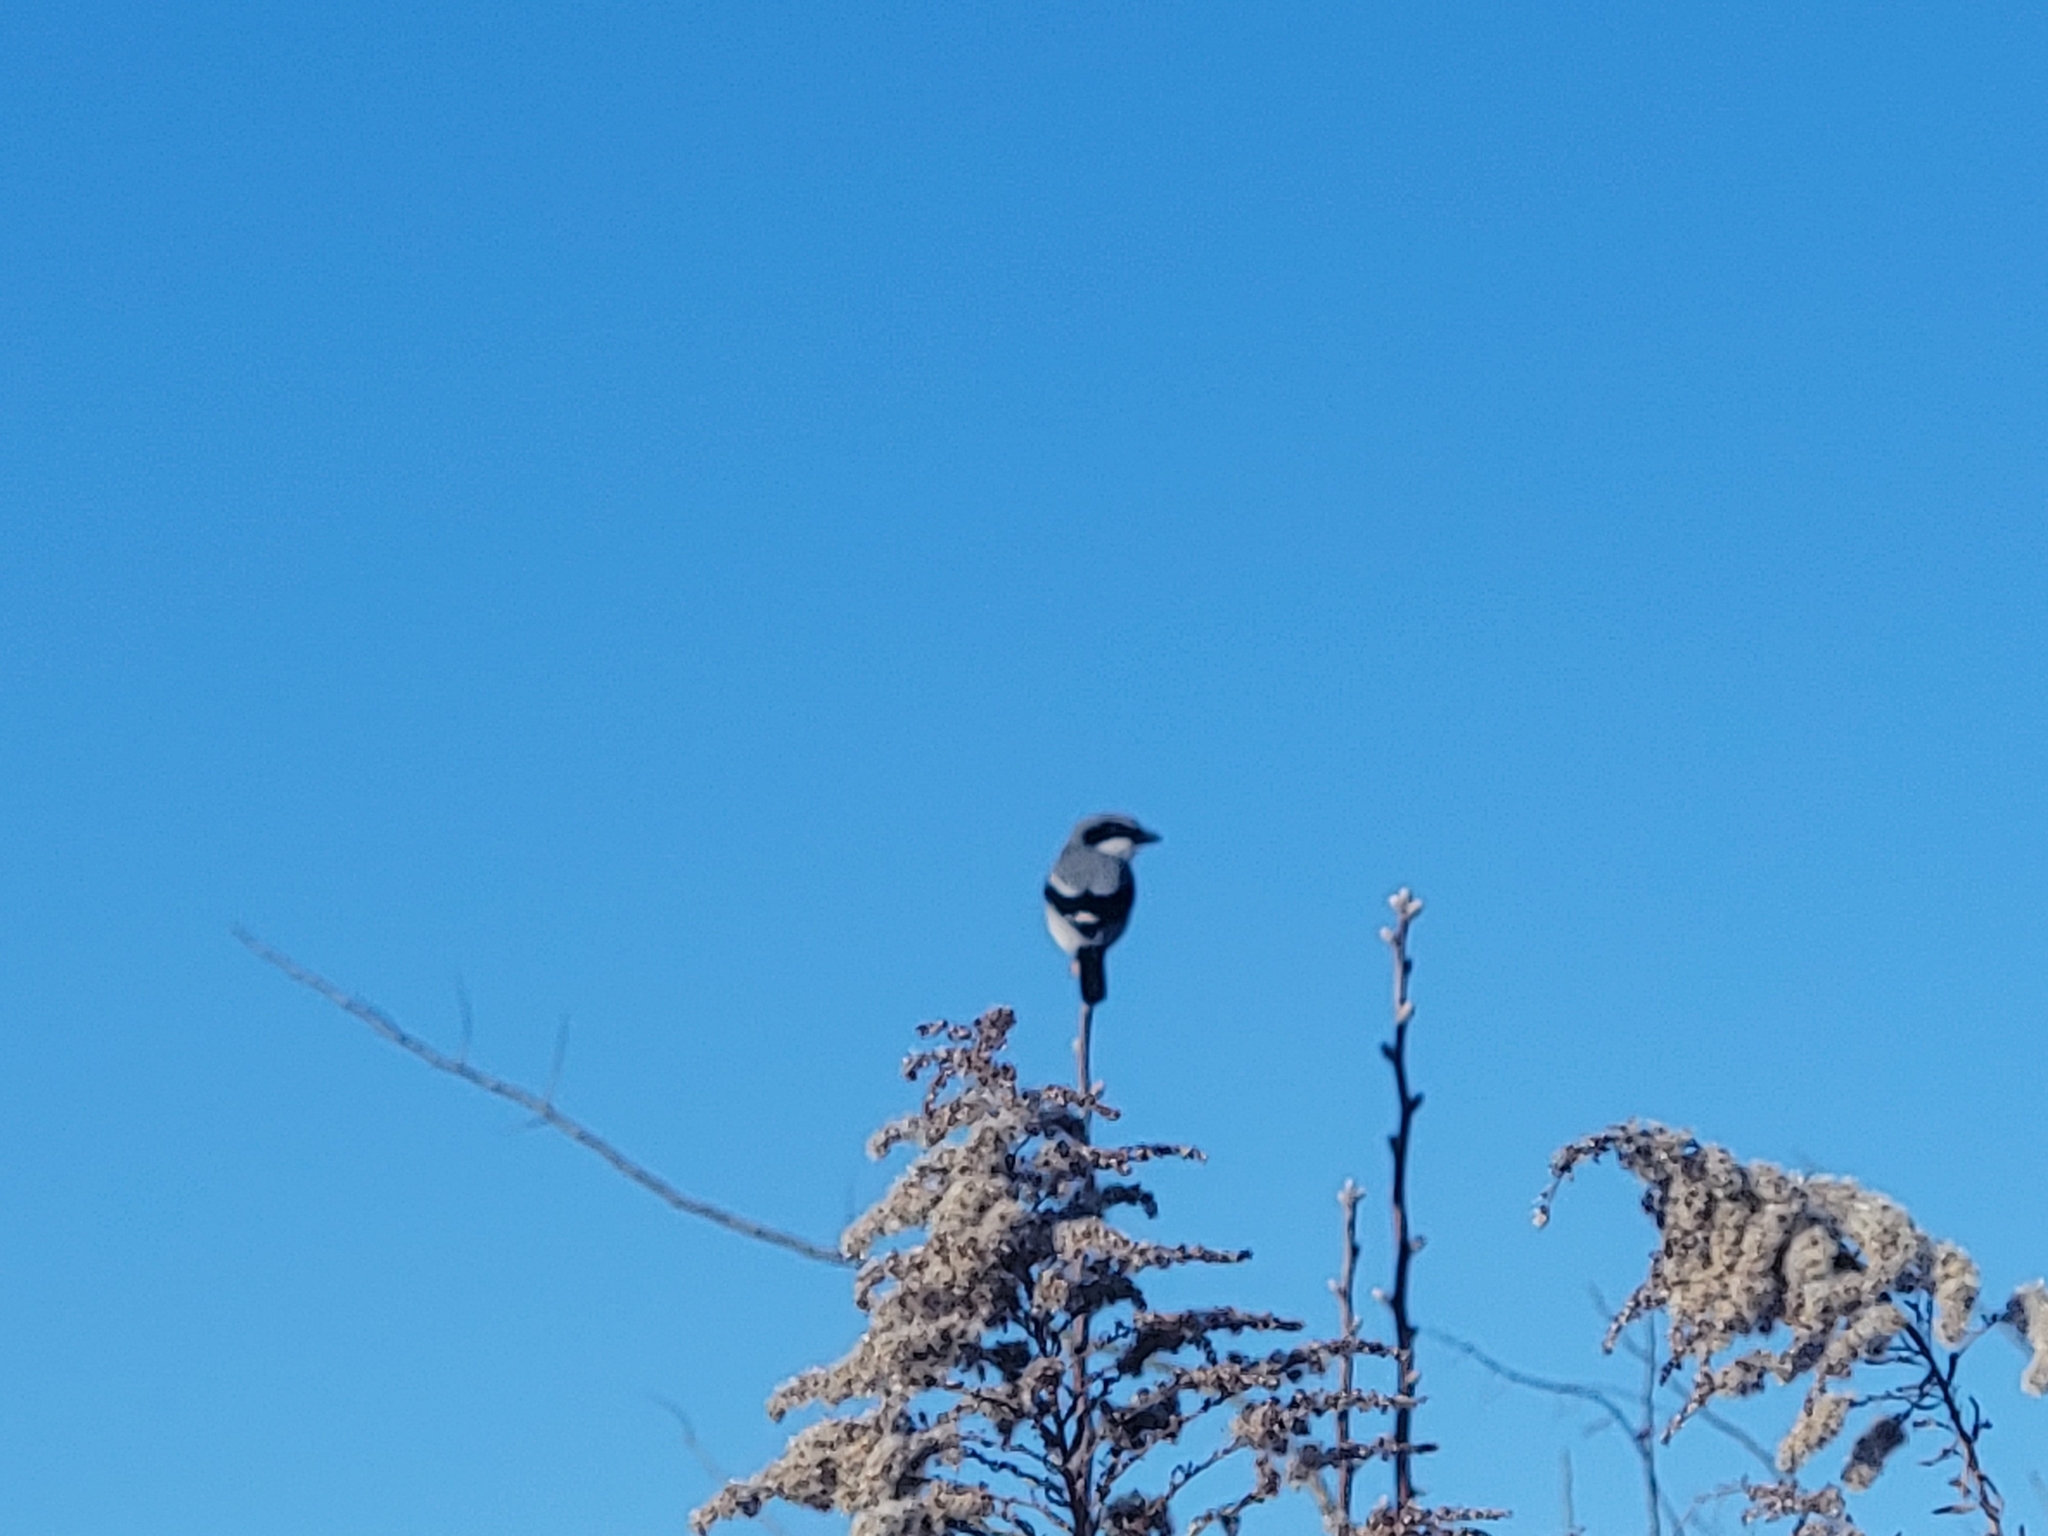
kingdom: Animalia
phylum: Chordata
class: Aves
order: Passeriformes
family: Laniidae
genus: Lanius
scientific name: Lanius ludovicianus
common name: Loggerhead shrike
